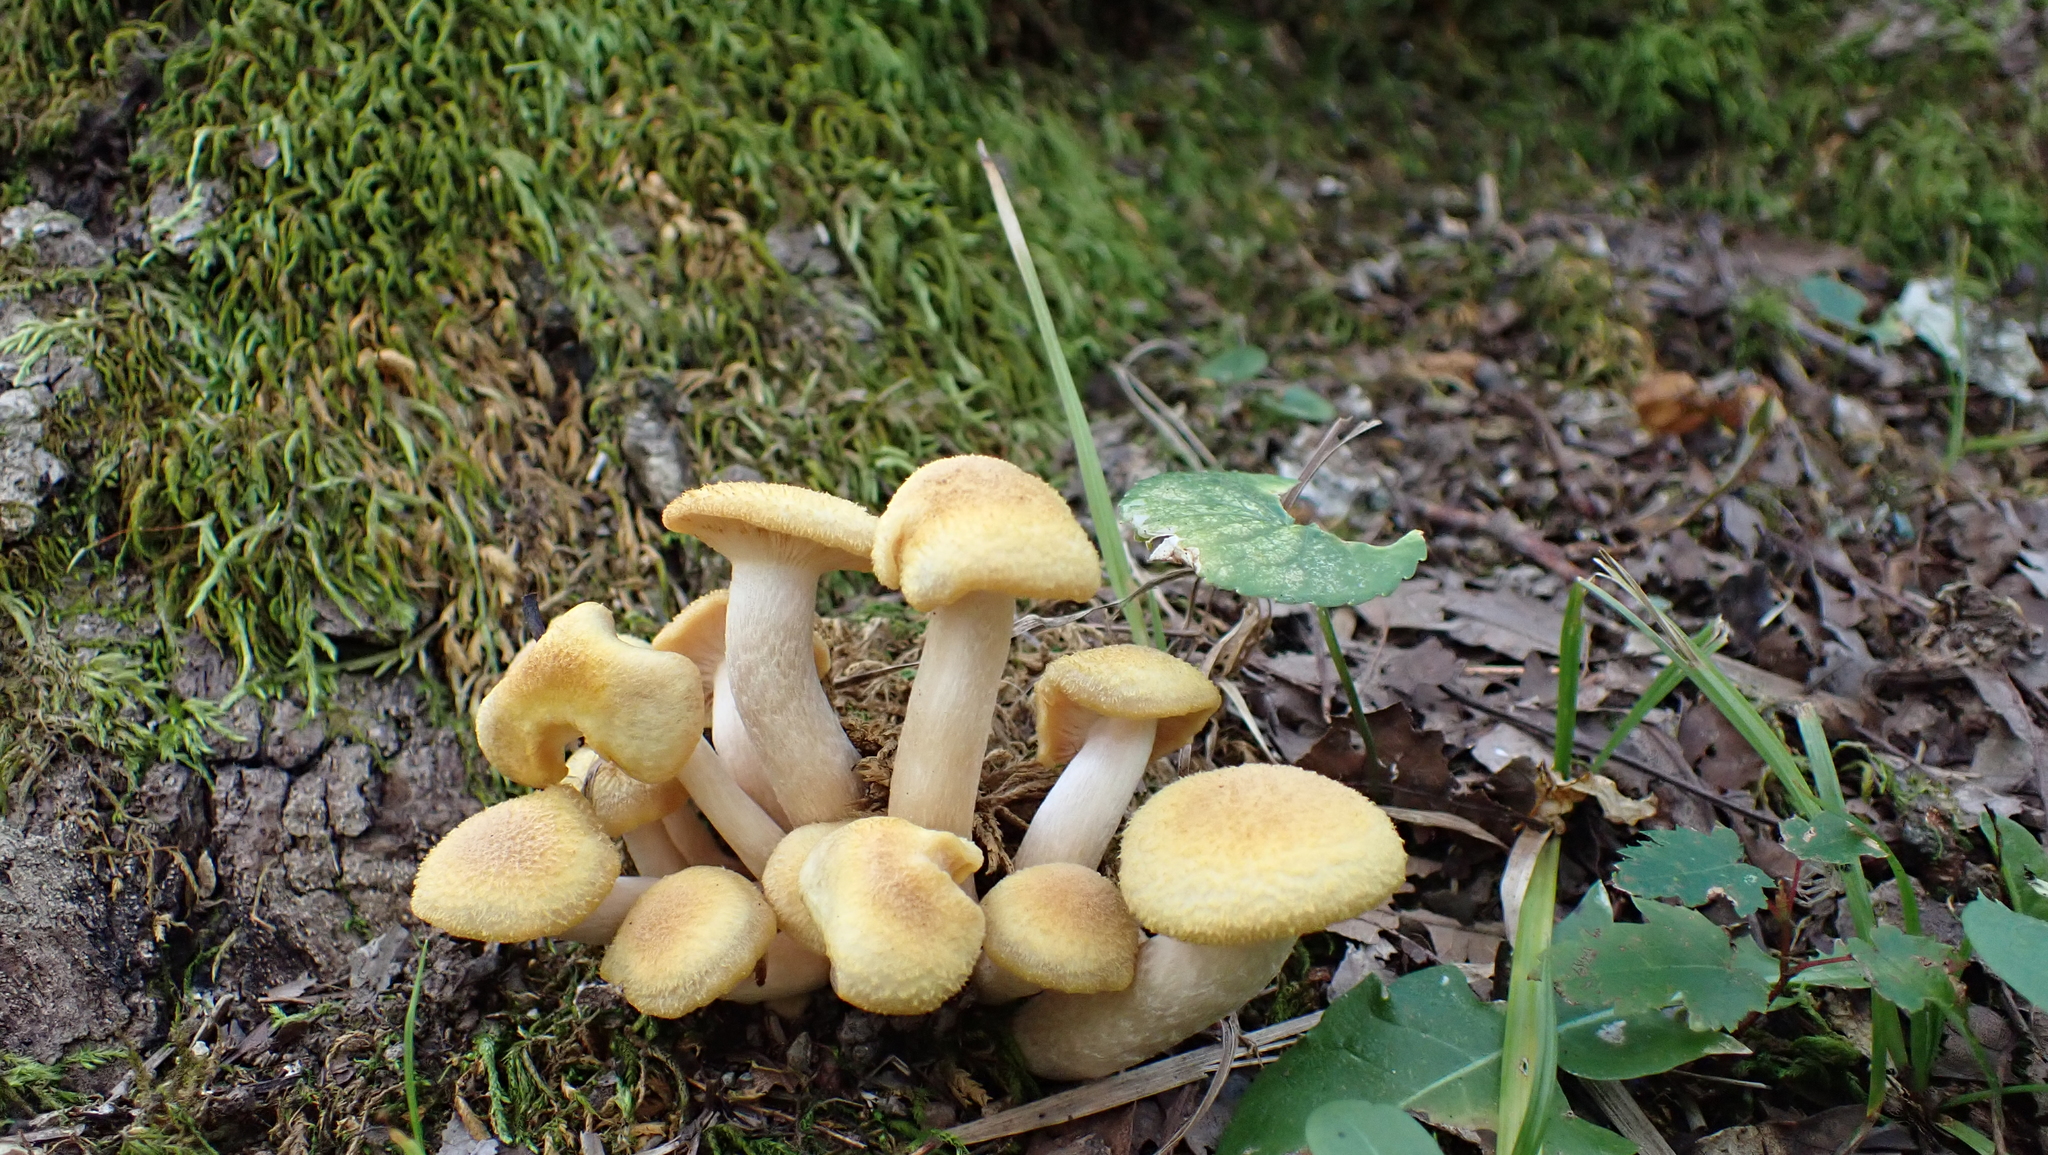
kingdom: Fungi
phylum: Basidiomycota
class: Agaricomycetes
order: Agaricales
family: Physalacriaceae
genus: Desarmillaria
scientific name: Desarmillaria caespitosa
